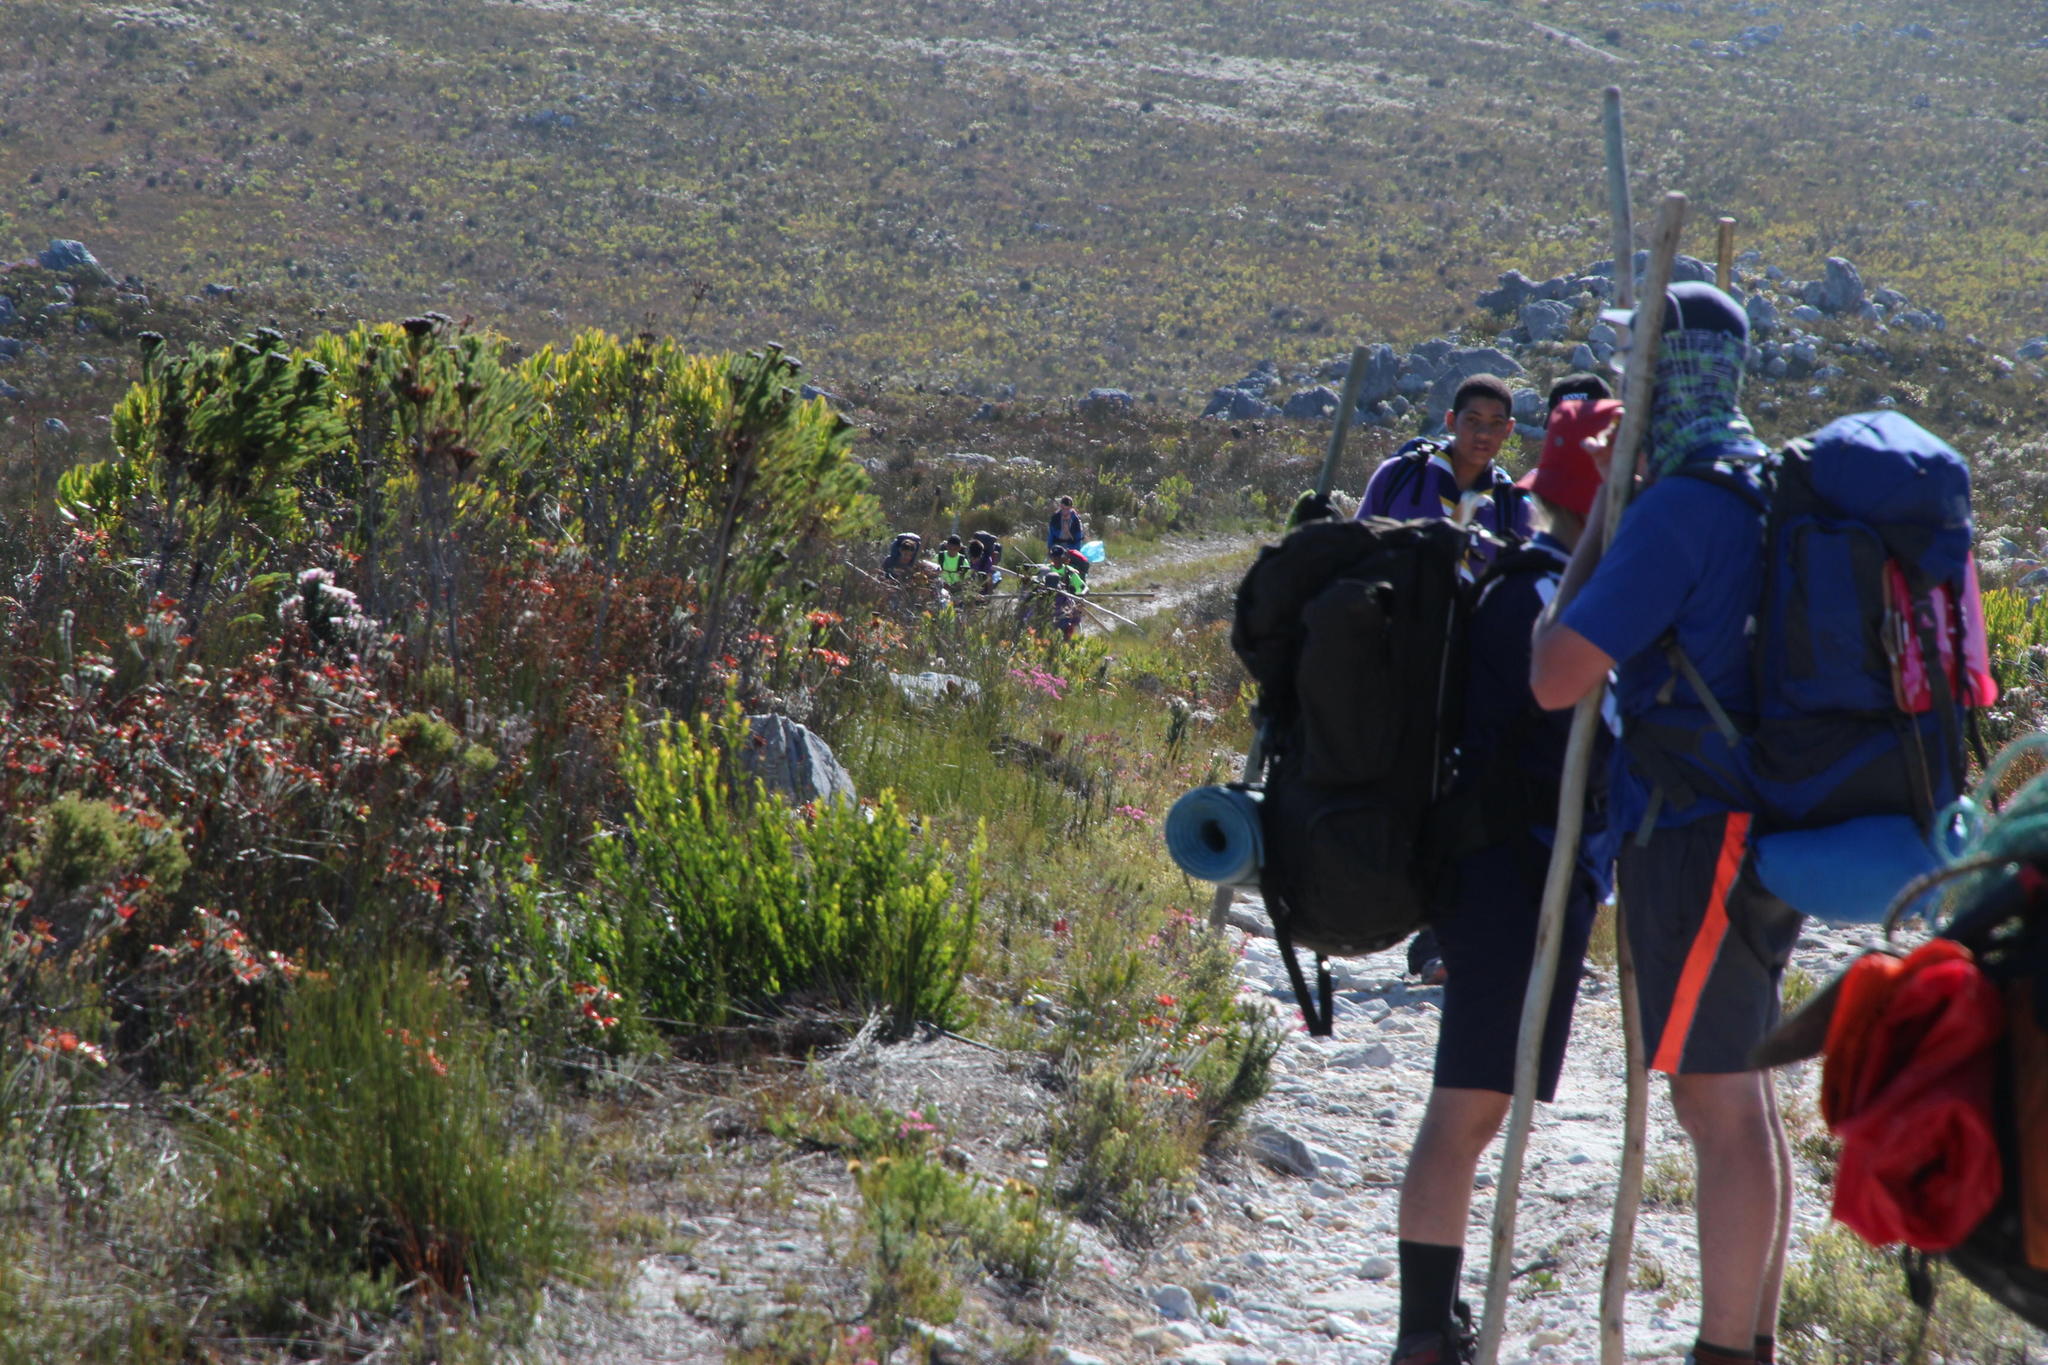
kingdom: Plantae
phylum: Tracheophyta
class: Magnoliopsida
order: Bruniales
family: Bruniaceae
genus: Berzelia
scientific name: Berzelia albiflora
